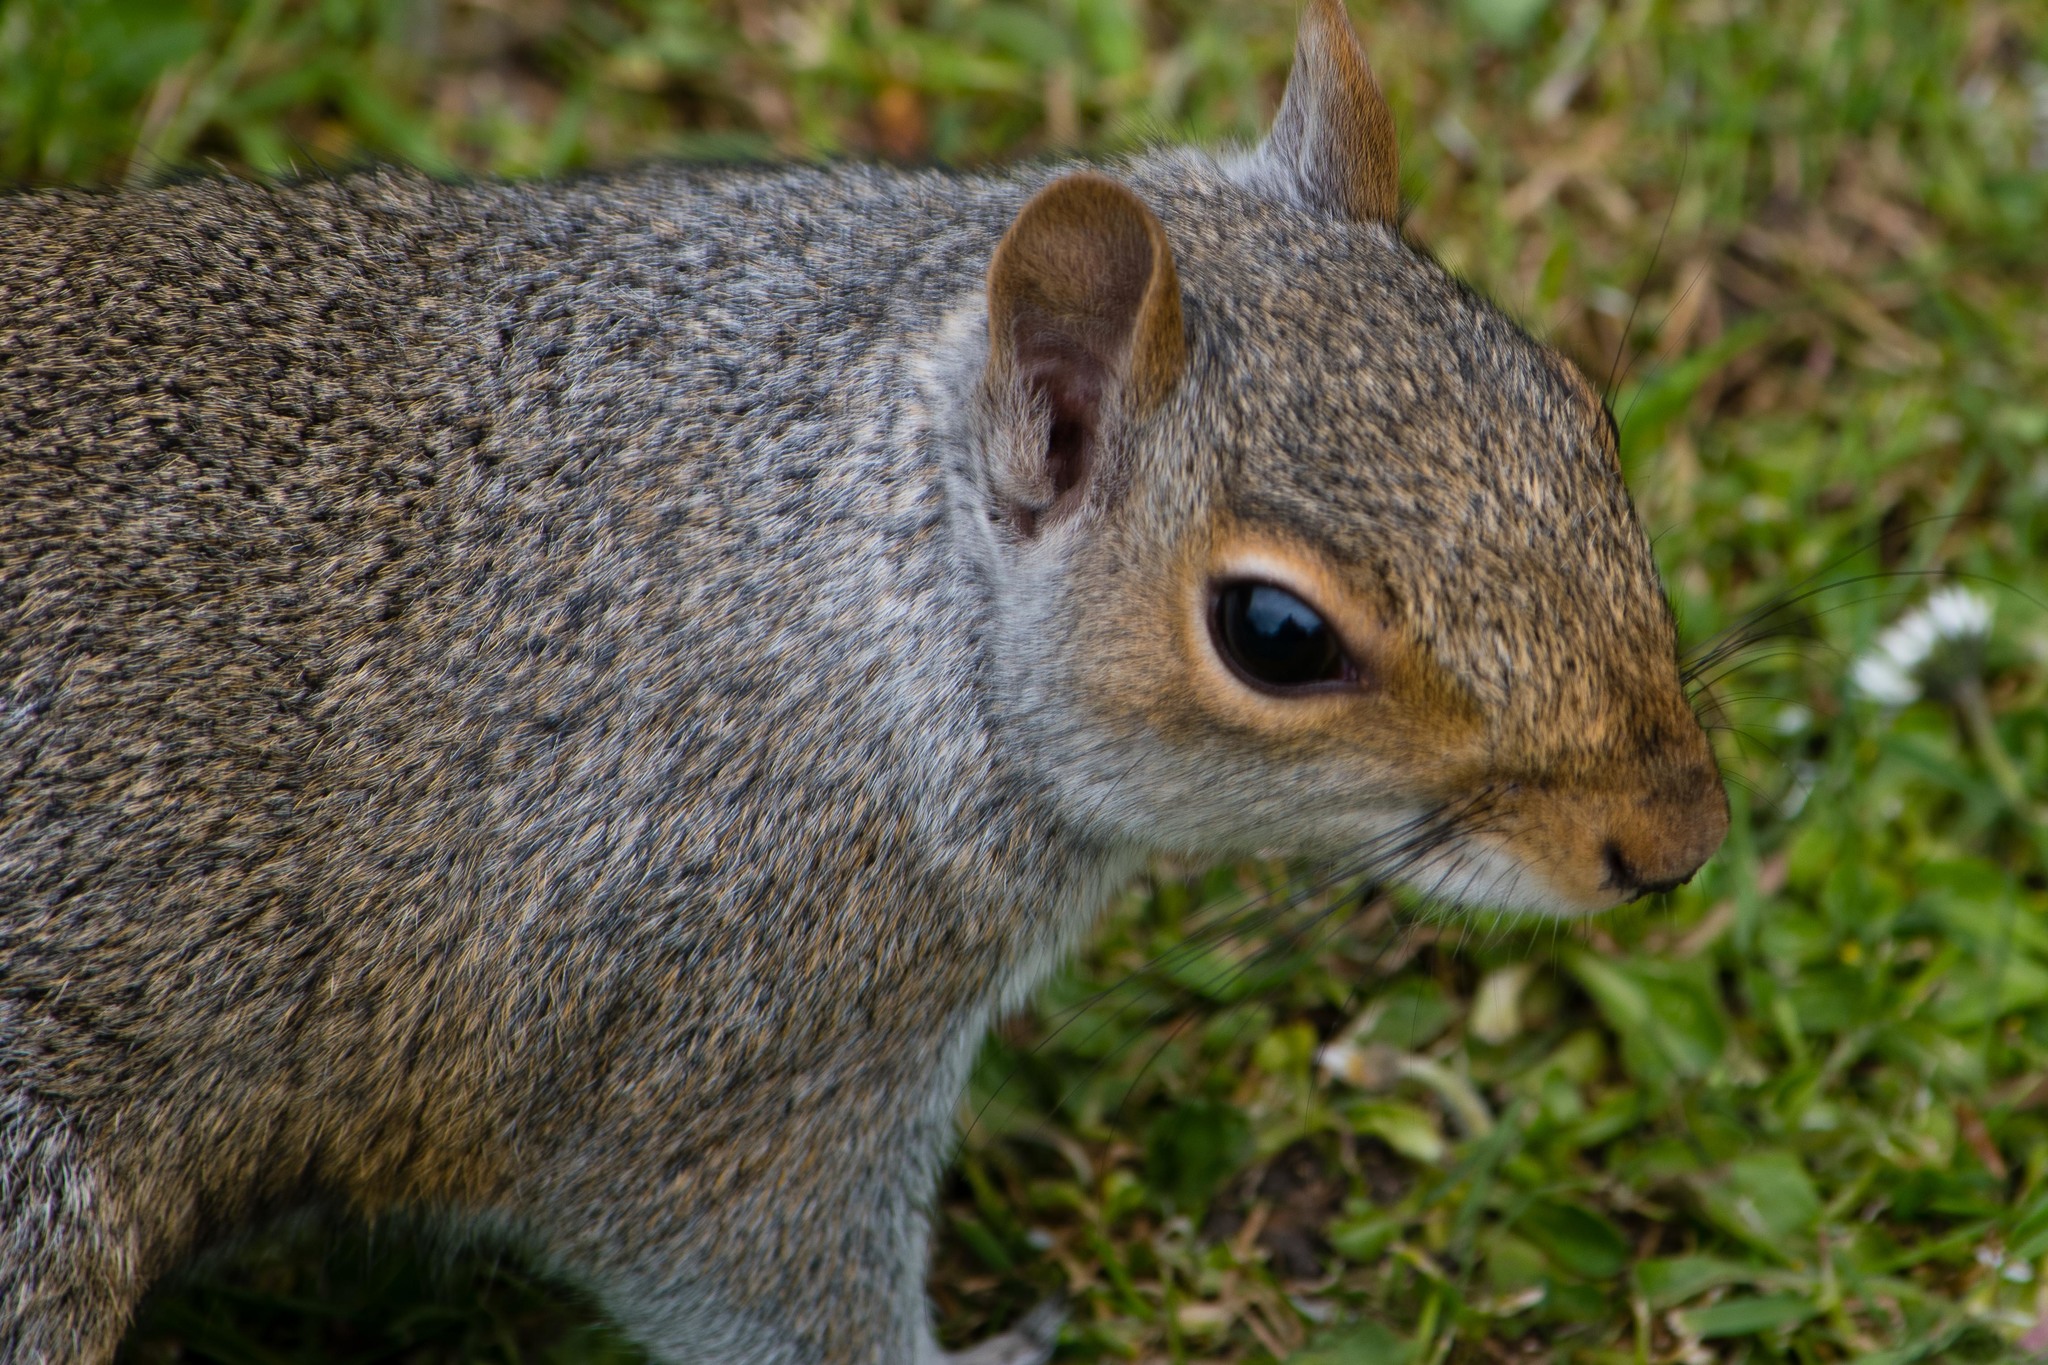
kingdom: Animalia
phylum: Chordata
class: Mammalia
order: Rodentia
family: Sciuridae
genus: Sciurus
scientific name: Sciurus carolinensis
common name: Eastern gray squirrel
